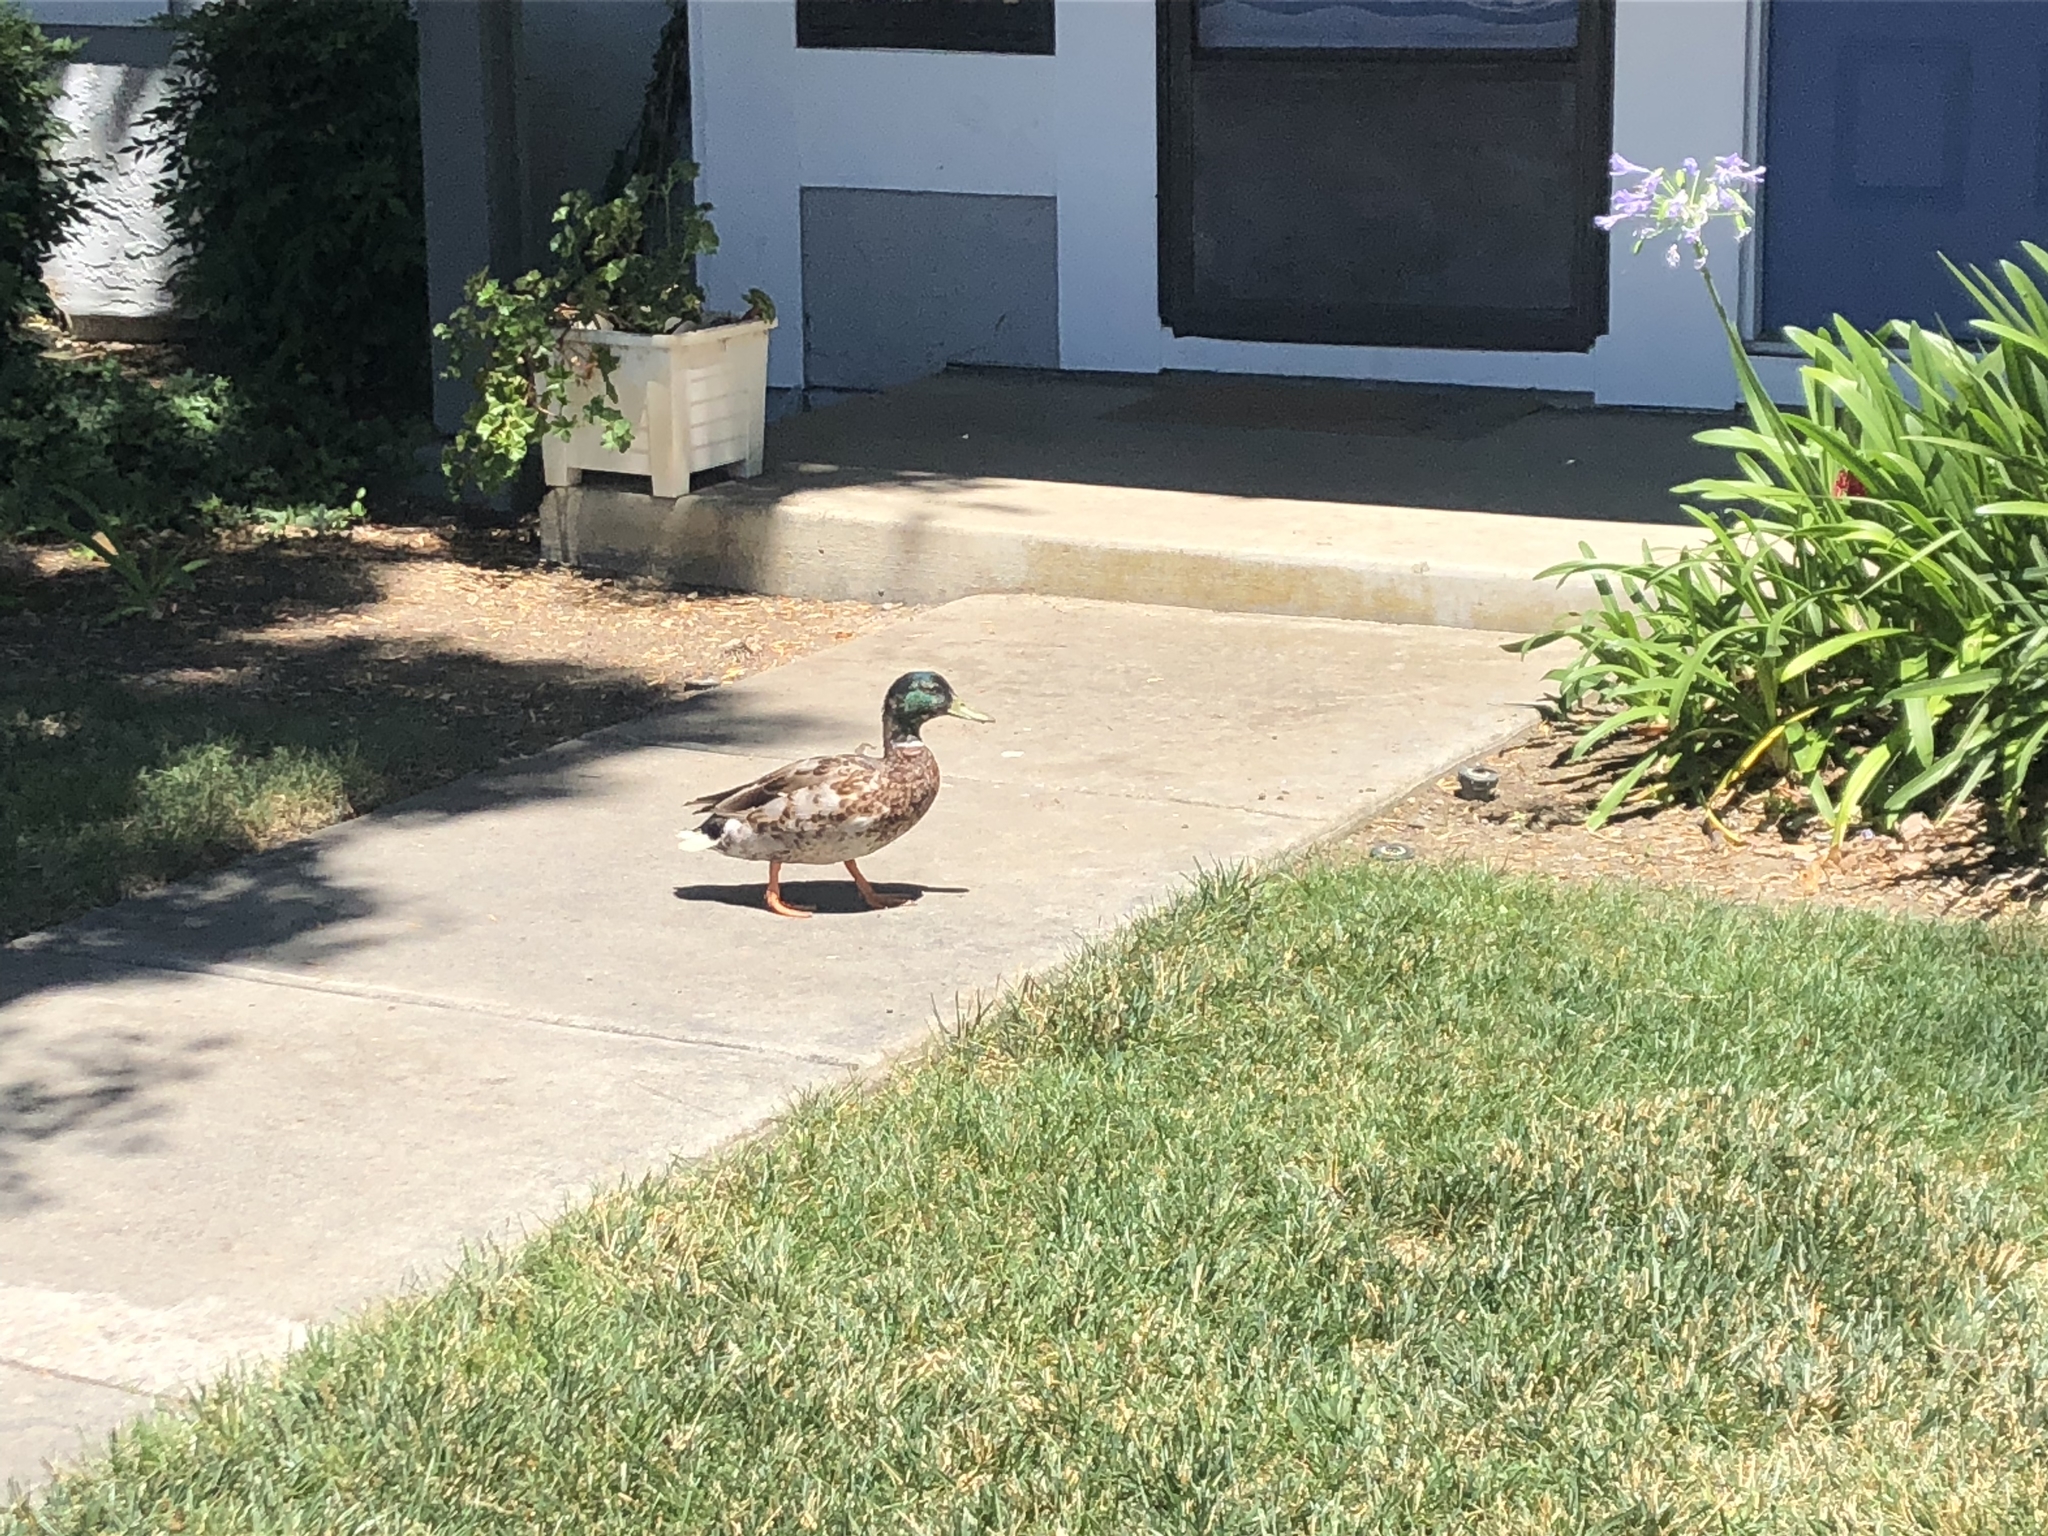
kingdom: Animalia
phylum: Chordata
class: Aves
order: Anseriformes
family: Anatidae
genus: Anas
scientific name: Anas platyrhynchos
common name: Mallard
